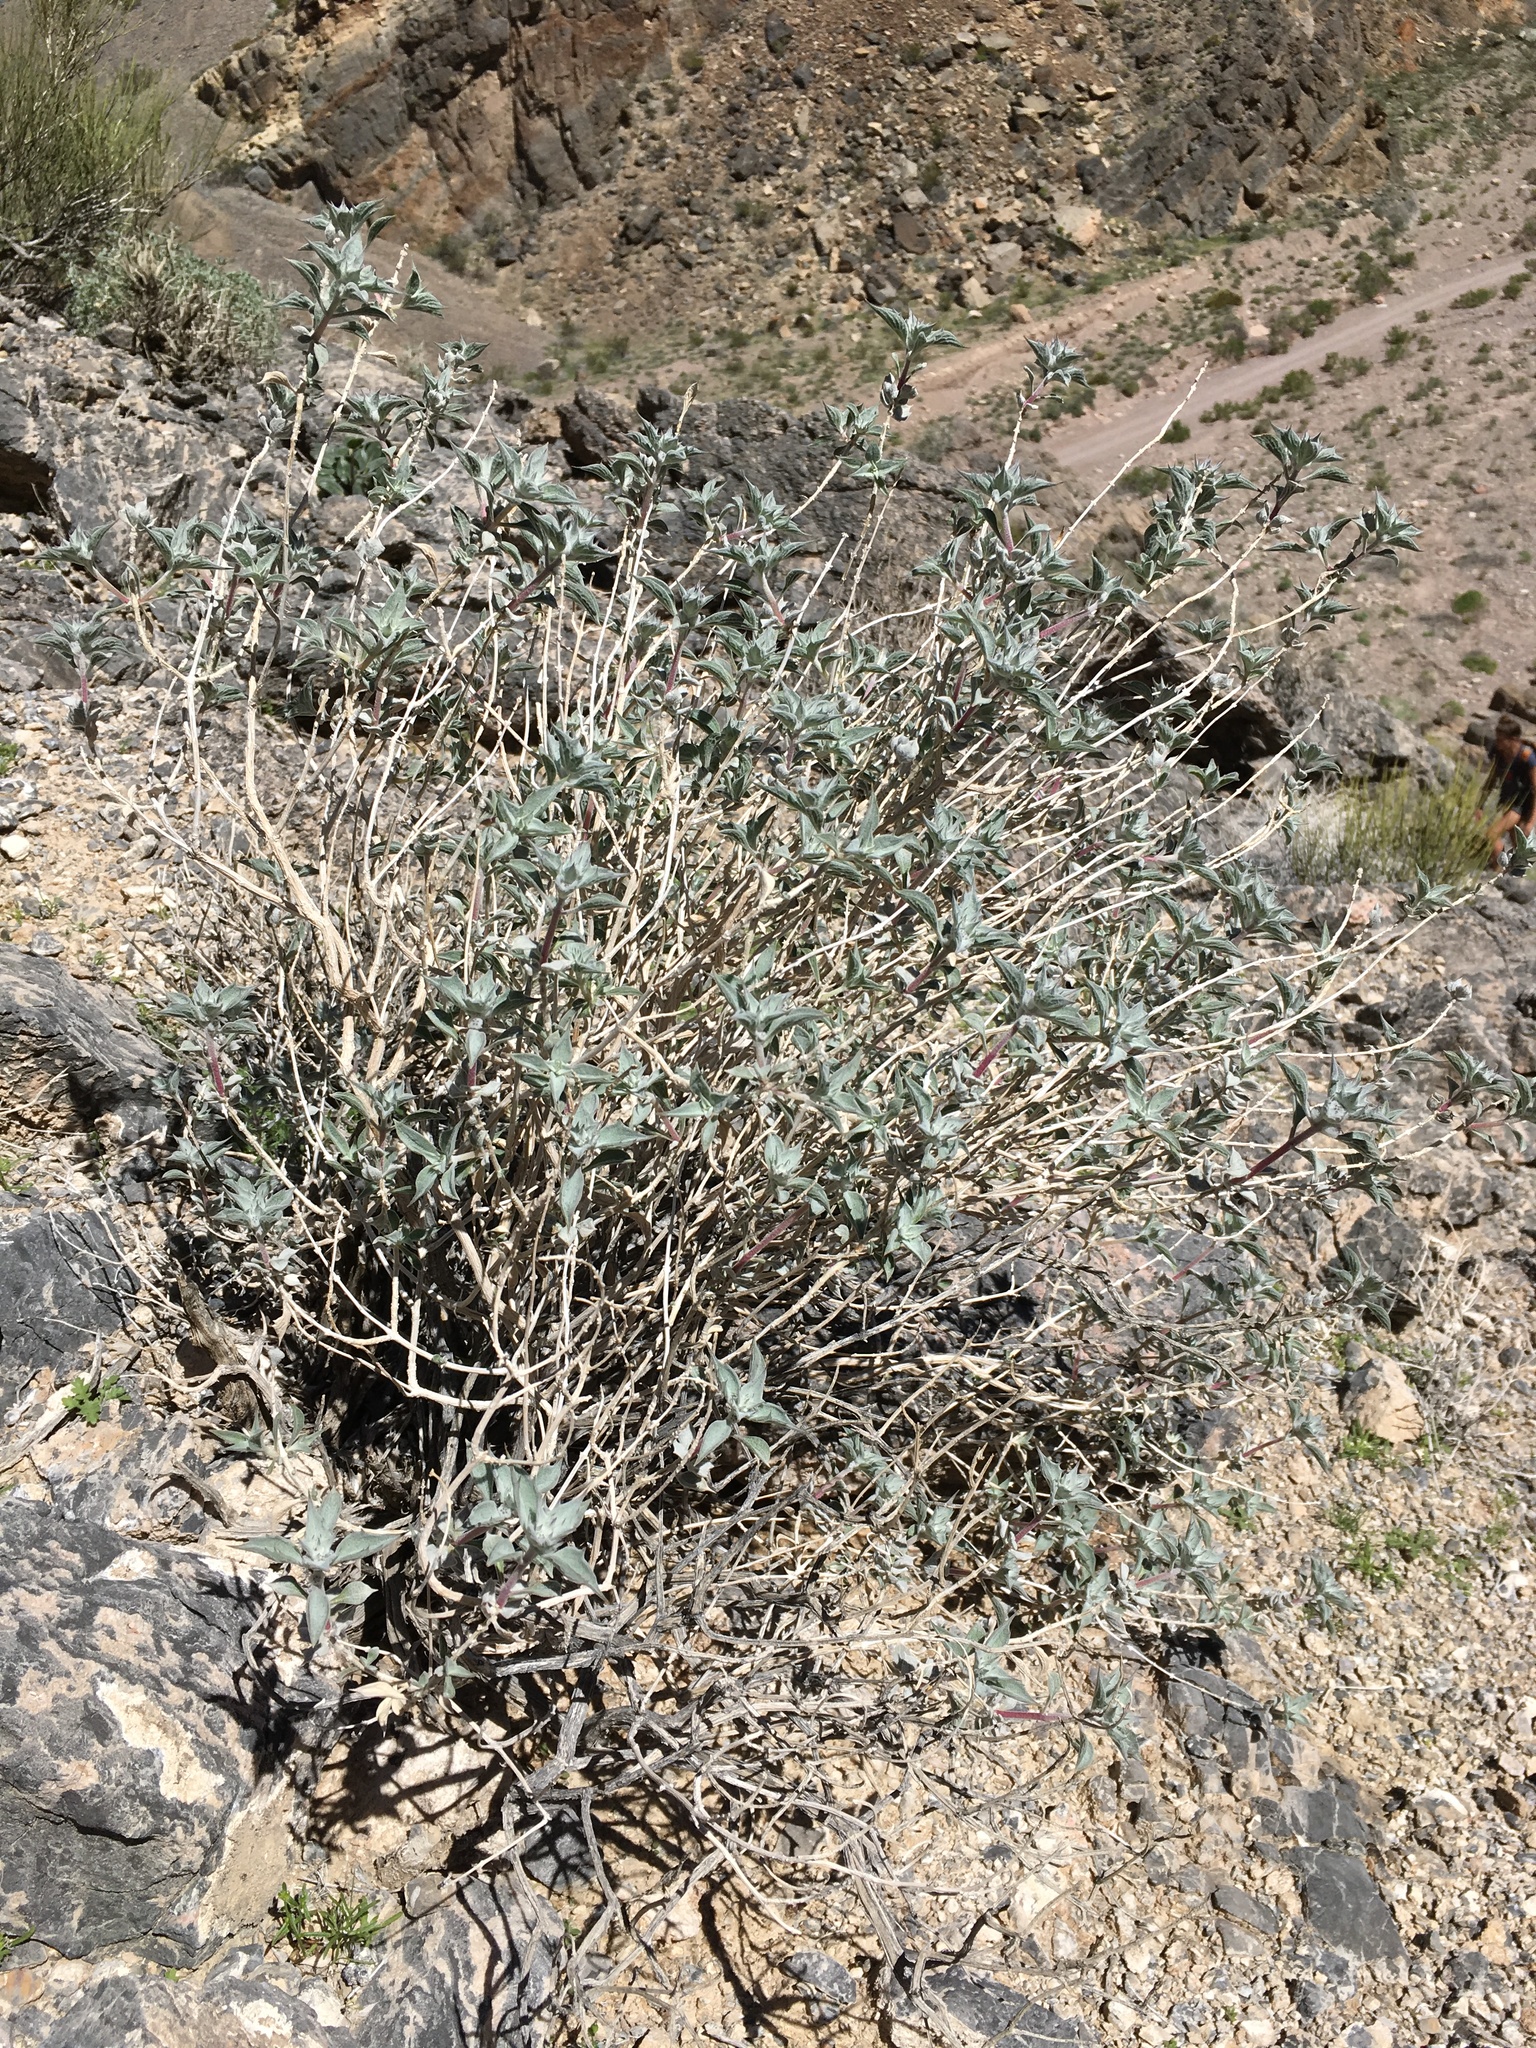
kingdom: Plantae
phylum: Tracheophyta
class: Magnoliopsida
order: Lamiales
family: Lamiaceae
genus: Salvia
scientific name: Salvia funerea
